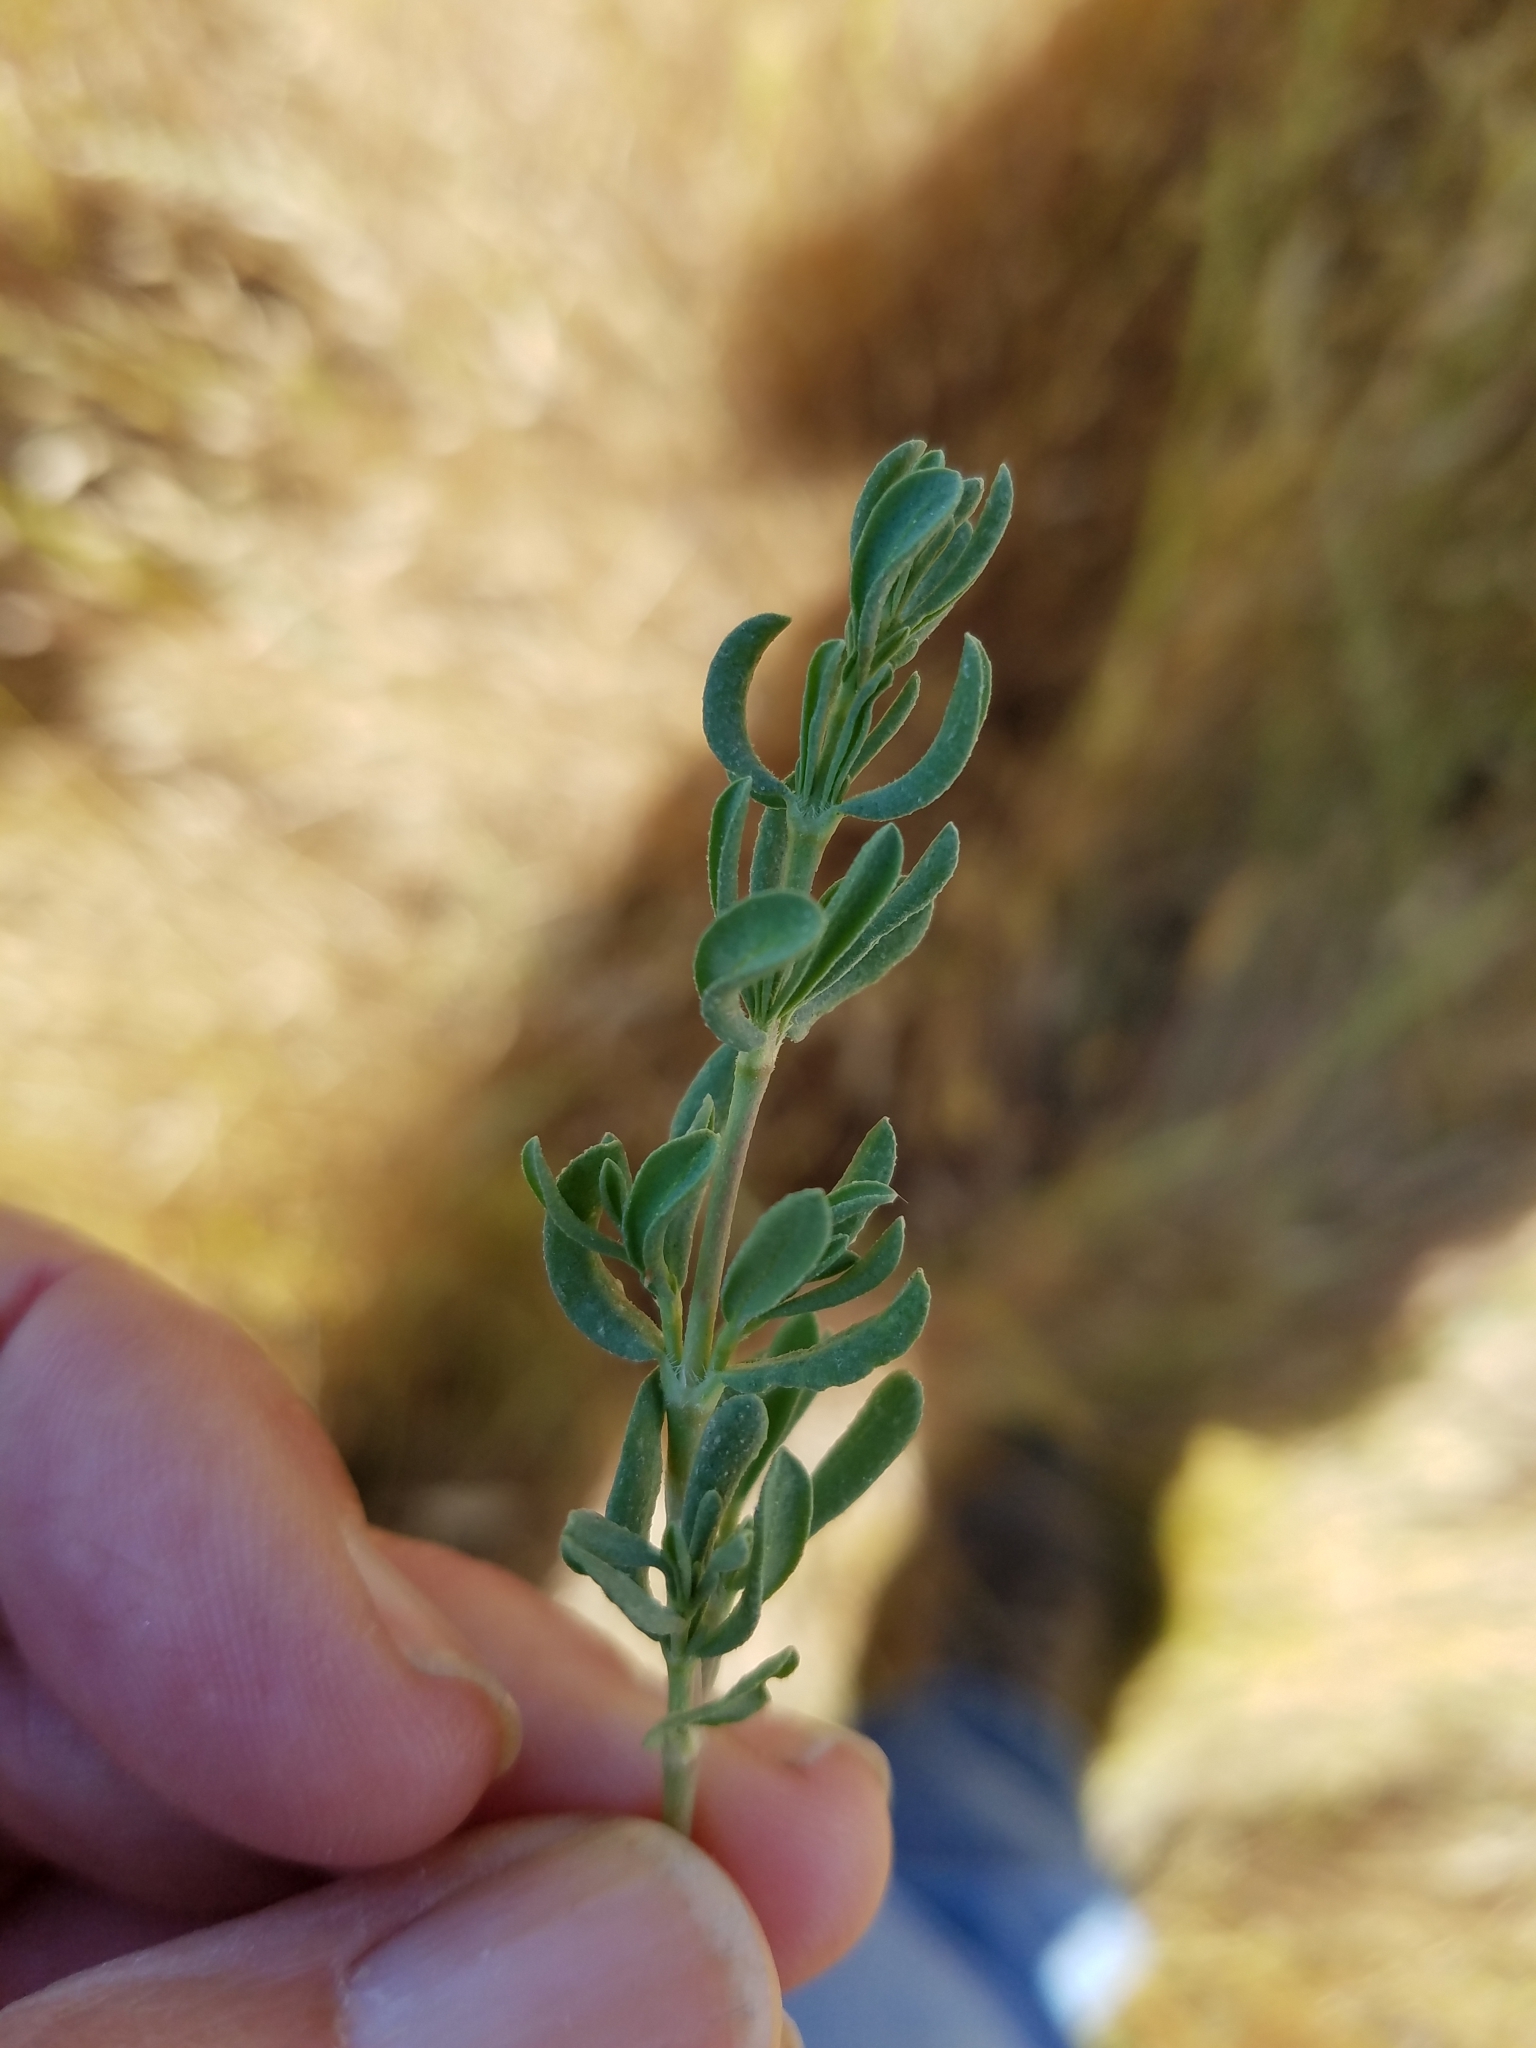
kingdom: Plantae
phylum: Tracheophyta
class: Magnoliopsida
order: Caryophyllales
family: Frankeniaceae
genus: Frankenia
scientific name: Frankenia salina
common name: Alkali seaheath
